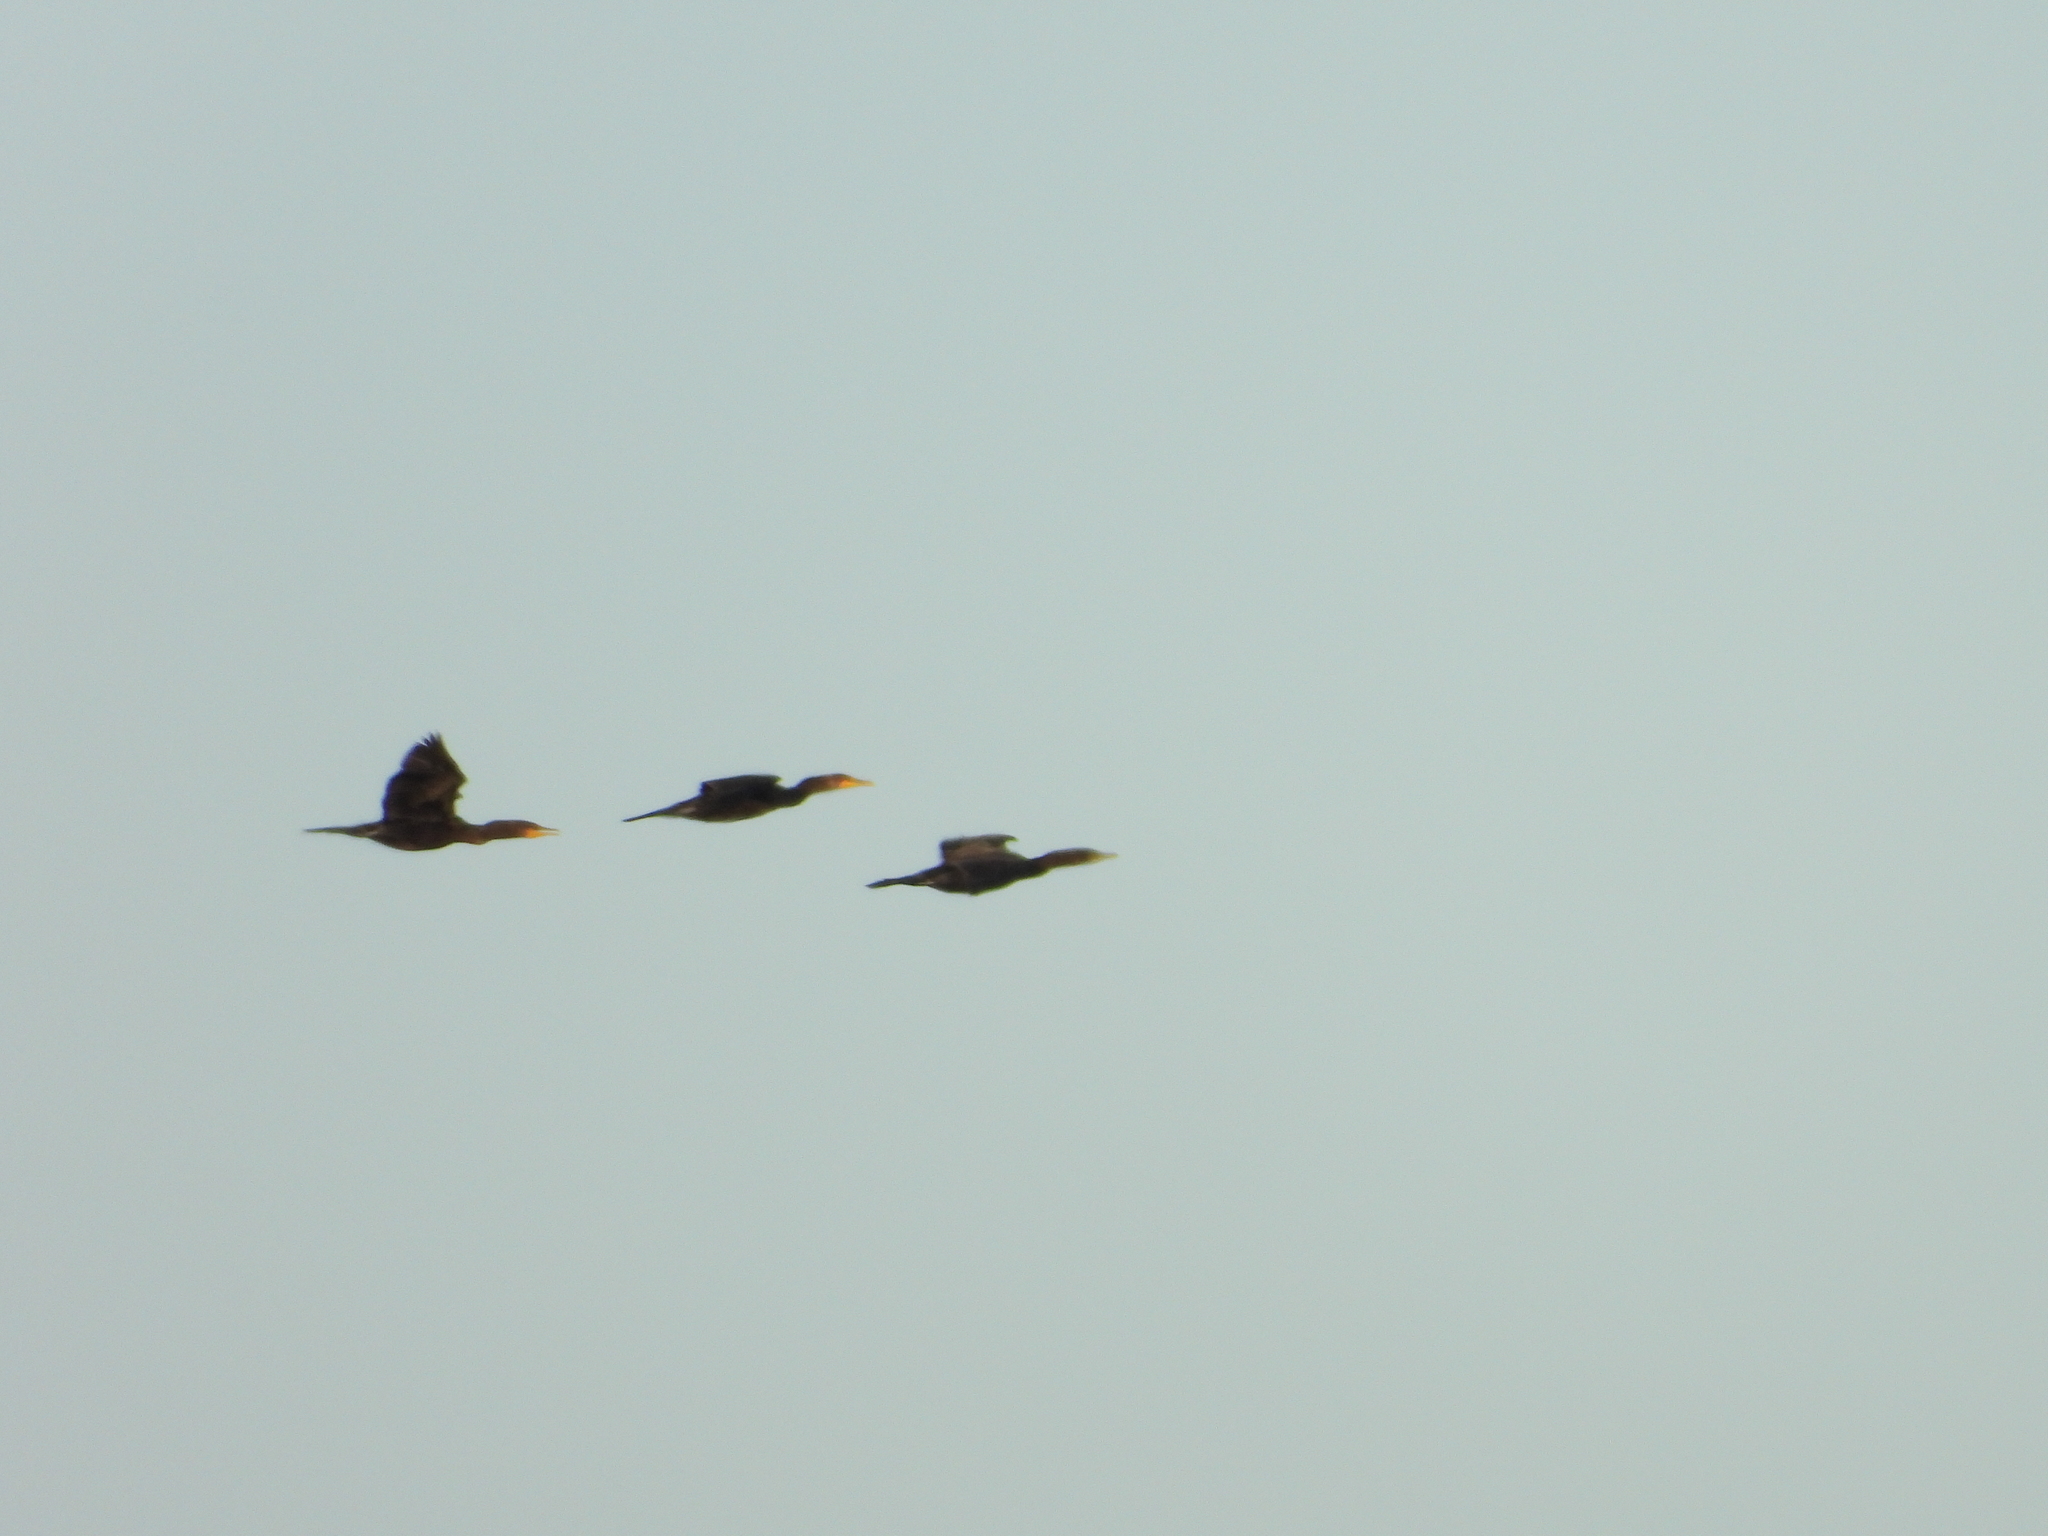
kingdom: Animalia
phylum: Chordata
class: Aves
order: Suliformes
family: Phalacrocoracidae
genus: Phalacrocorax
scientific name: Phalacrocorax auritus
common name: Double-crested cormorant
